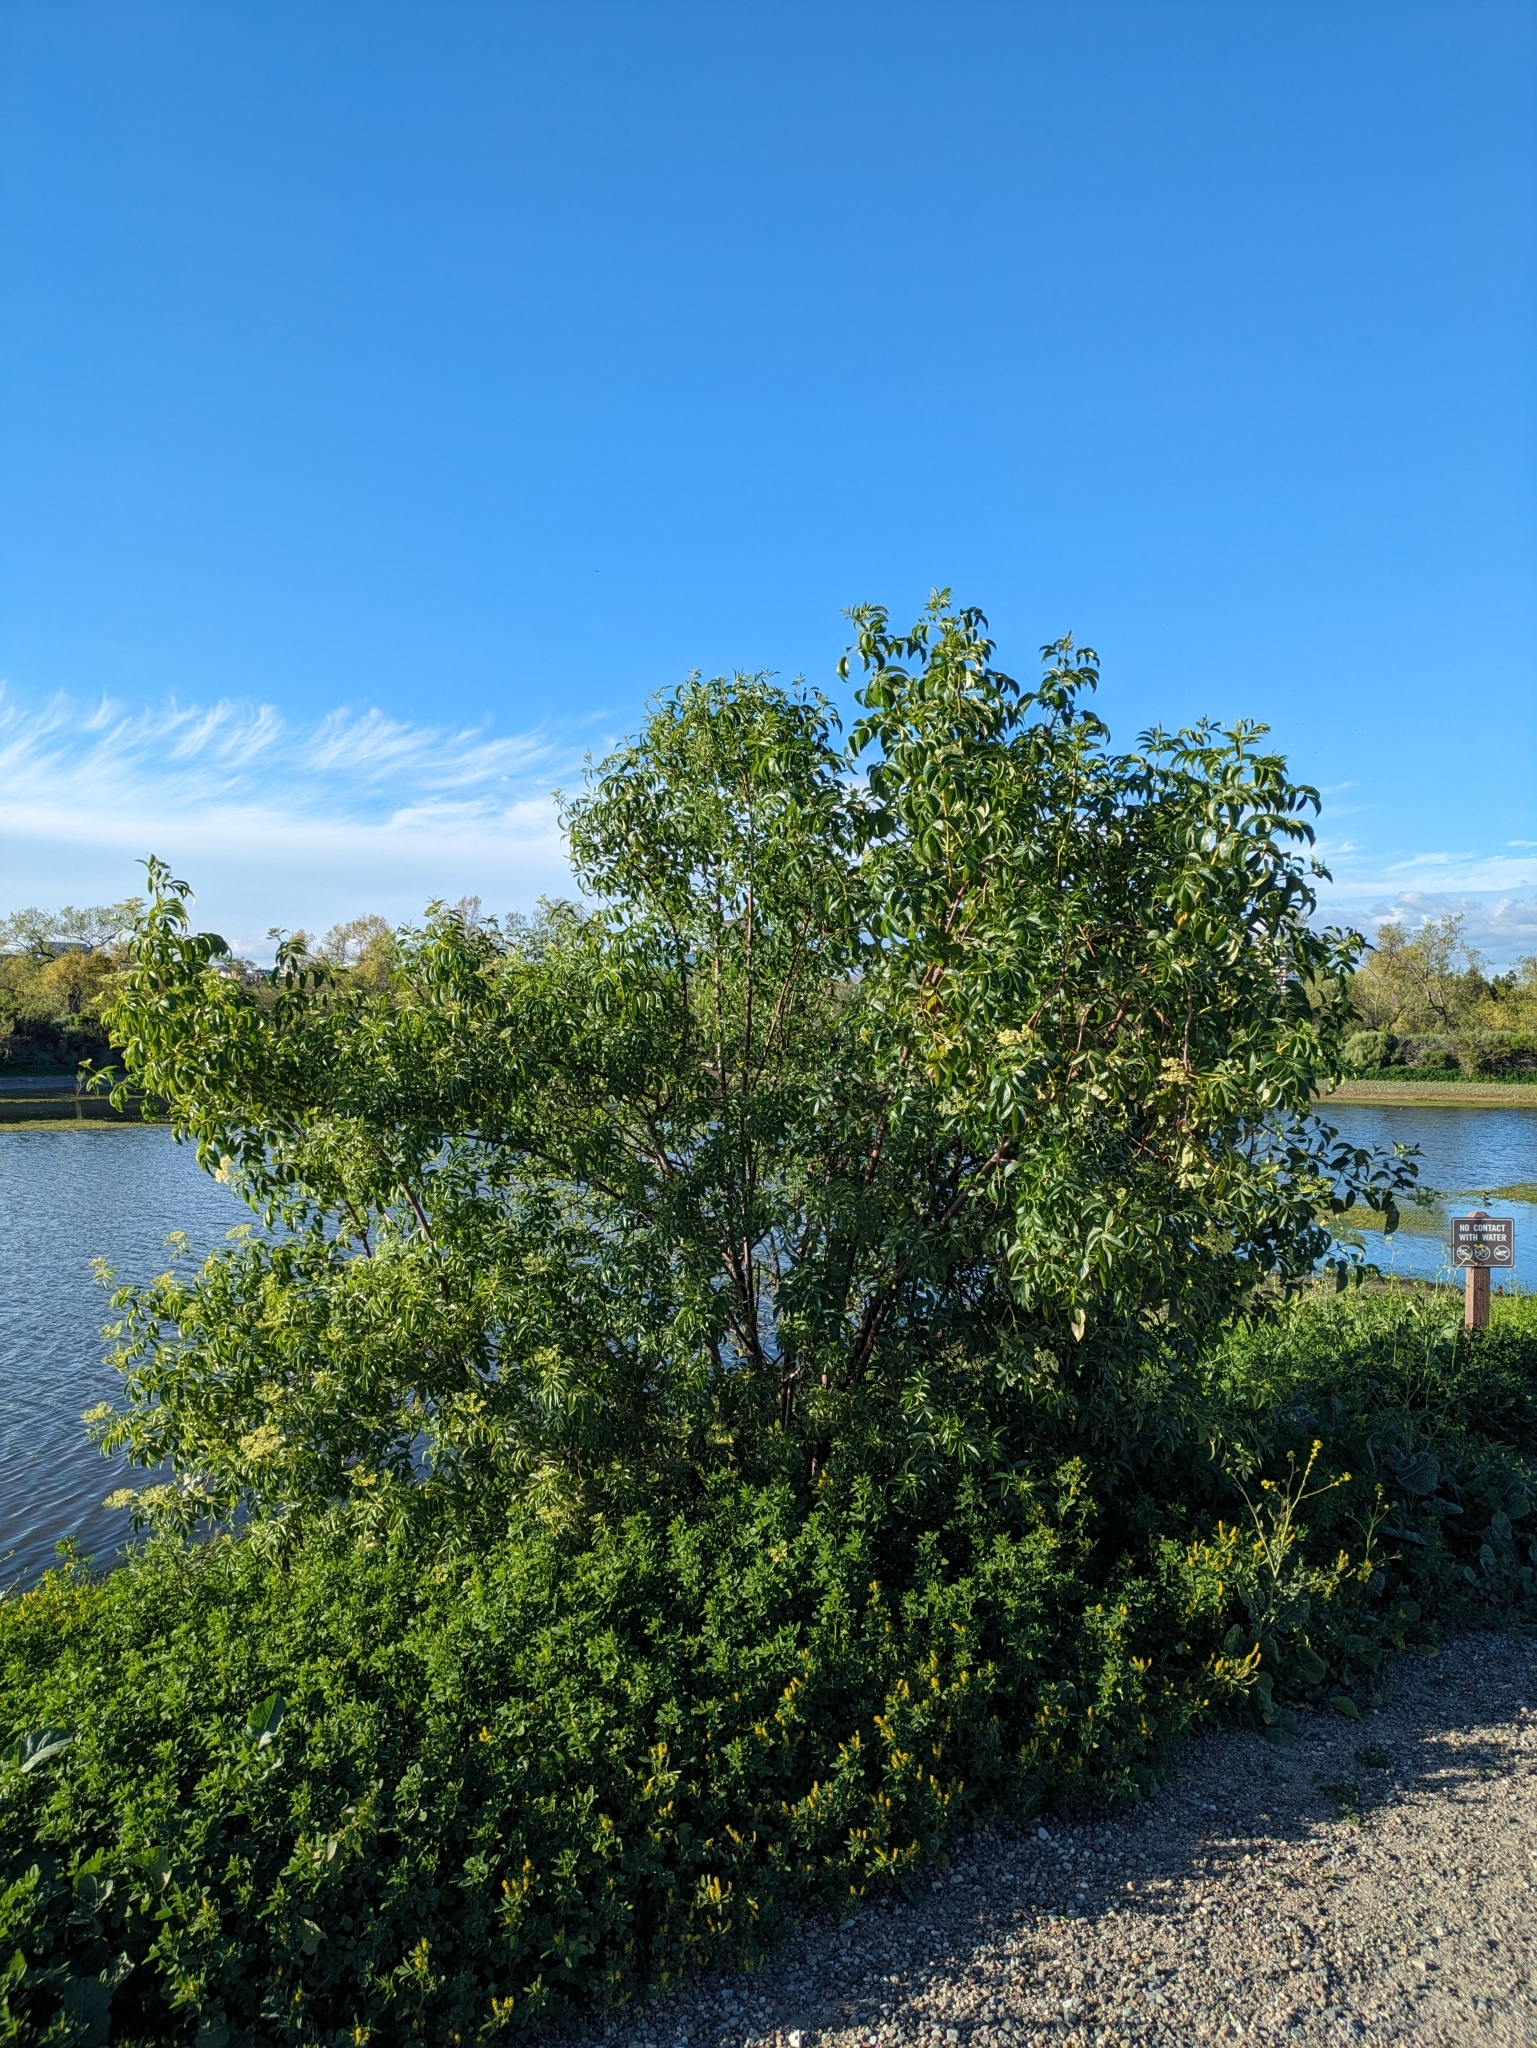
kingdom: Plantae
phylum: Tracheophyta
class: Magnoliopsida
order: Dipsacales
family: Viburnaceae
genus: Sambucus
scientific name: Sambucus cerulea
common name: Blue elder
